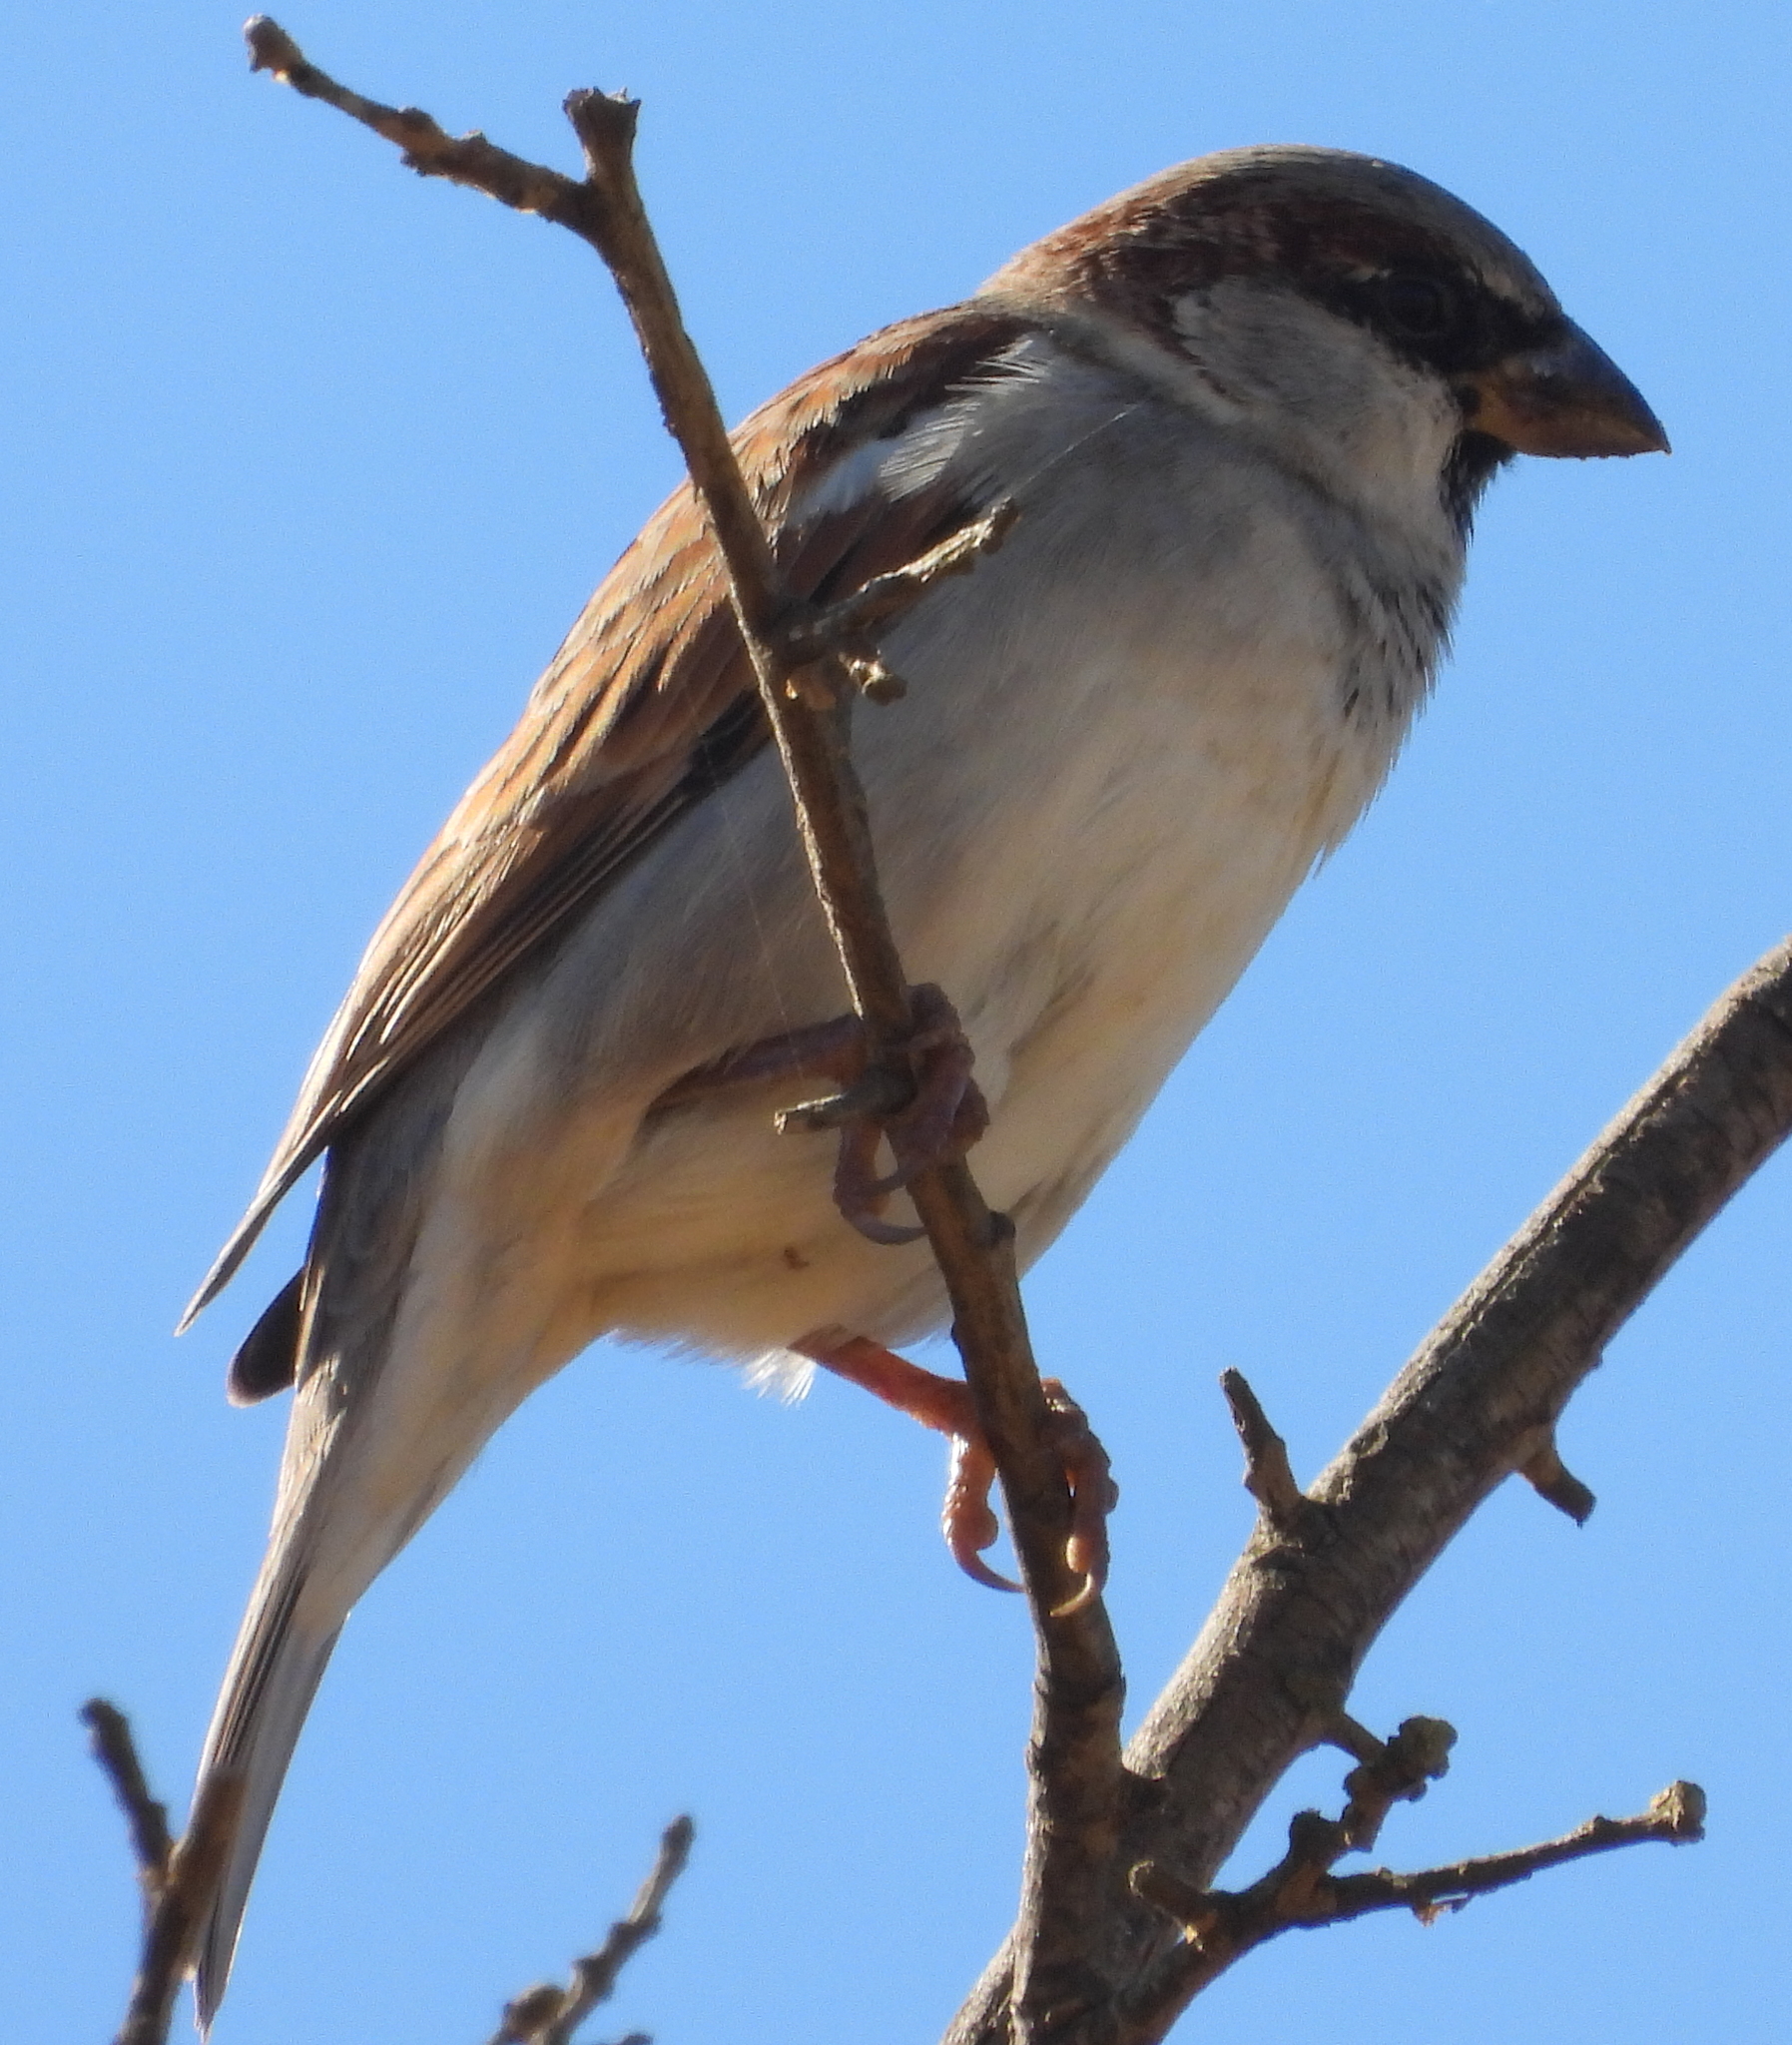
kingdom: Animalia
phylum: Chordata
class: Aves
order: Passeriformes
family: Passeridae
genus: Passer
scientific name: Passer domesticus
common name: House sparrow
